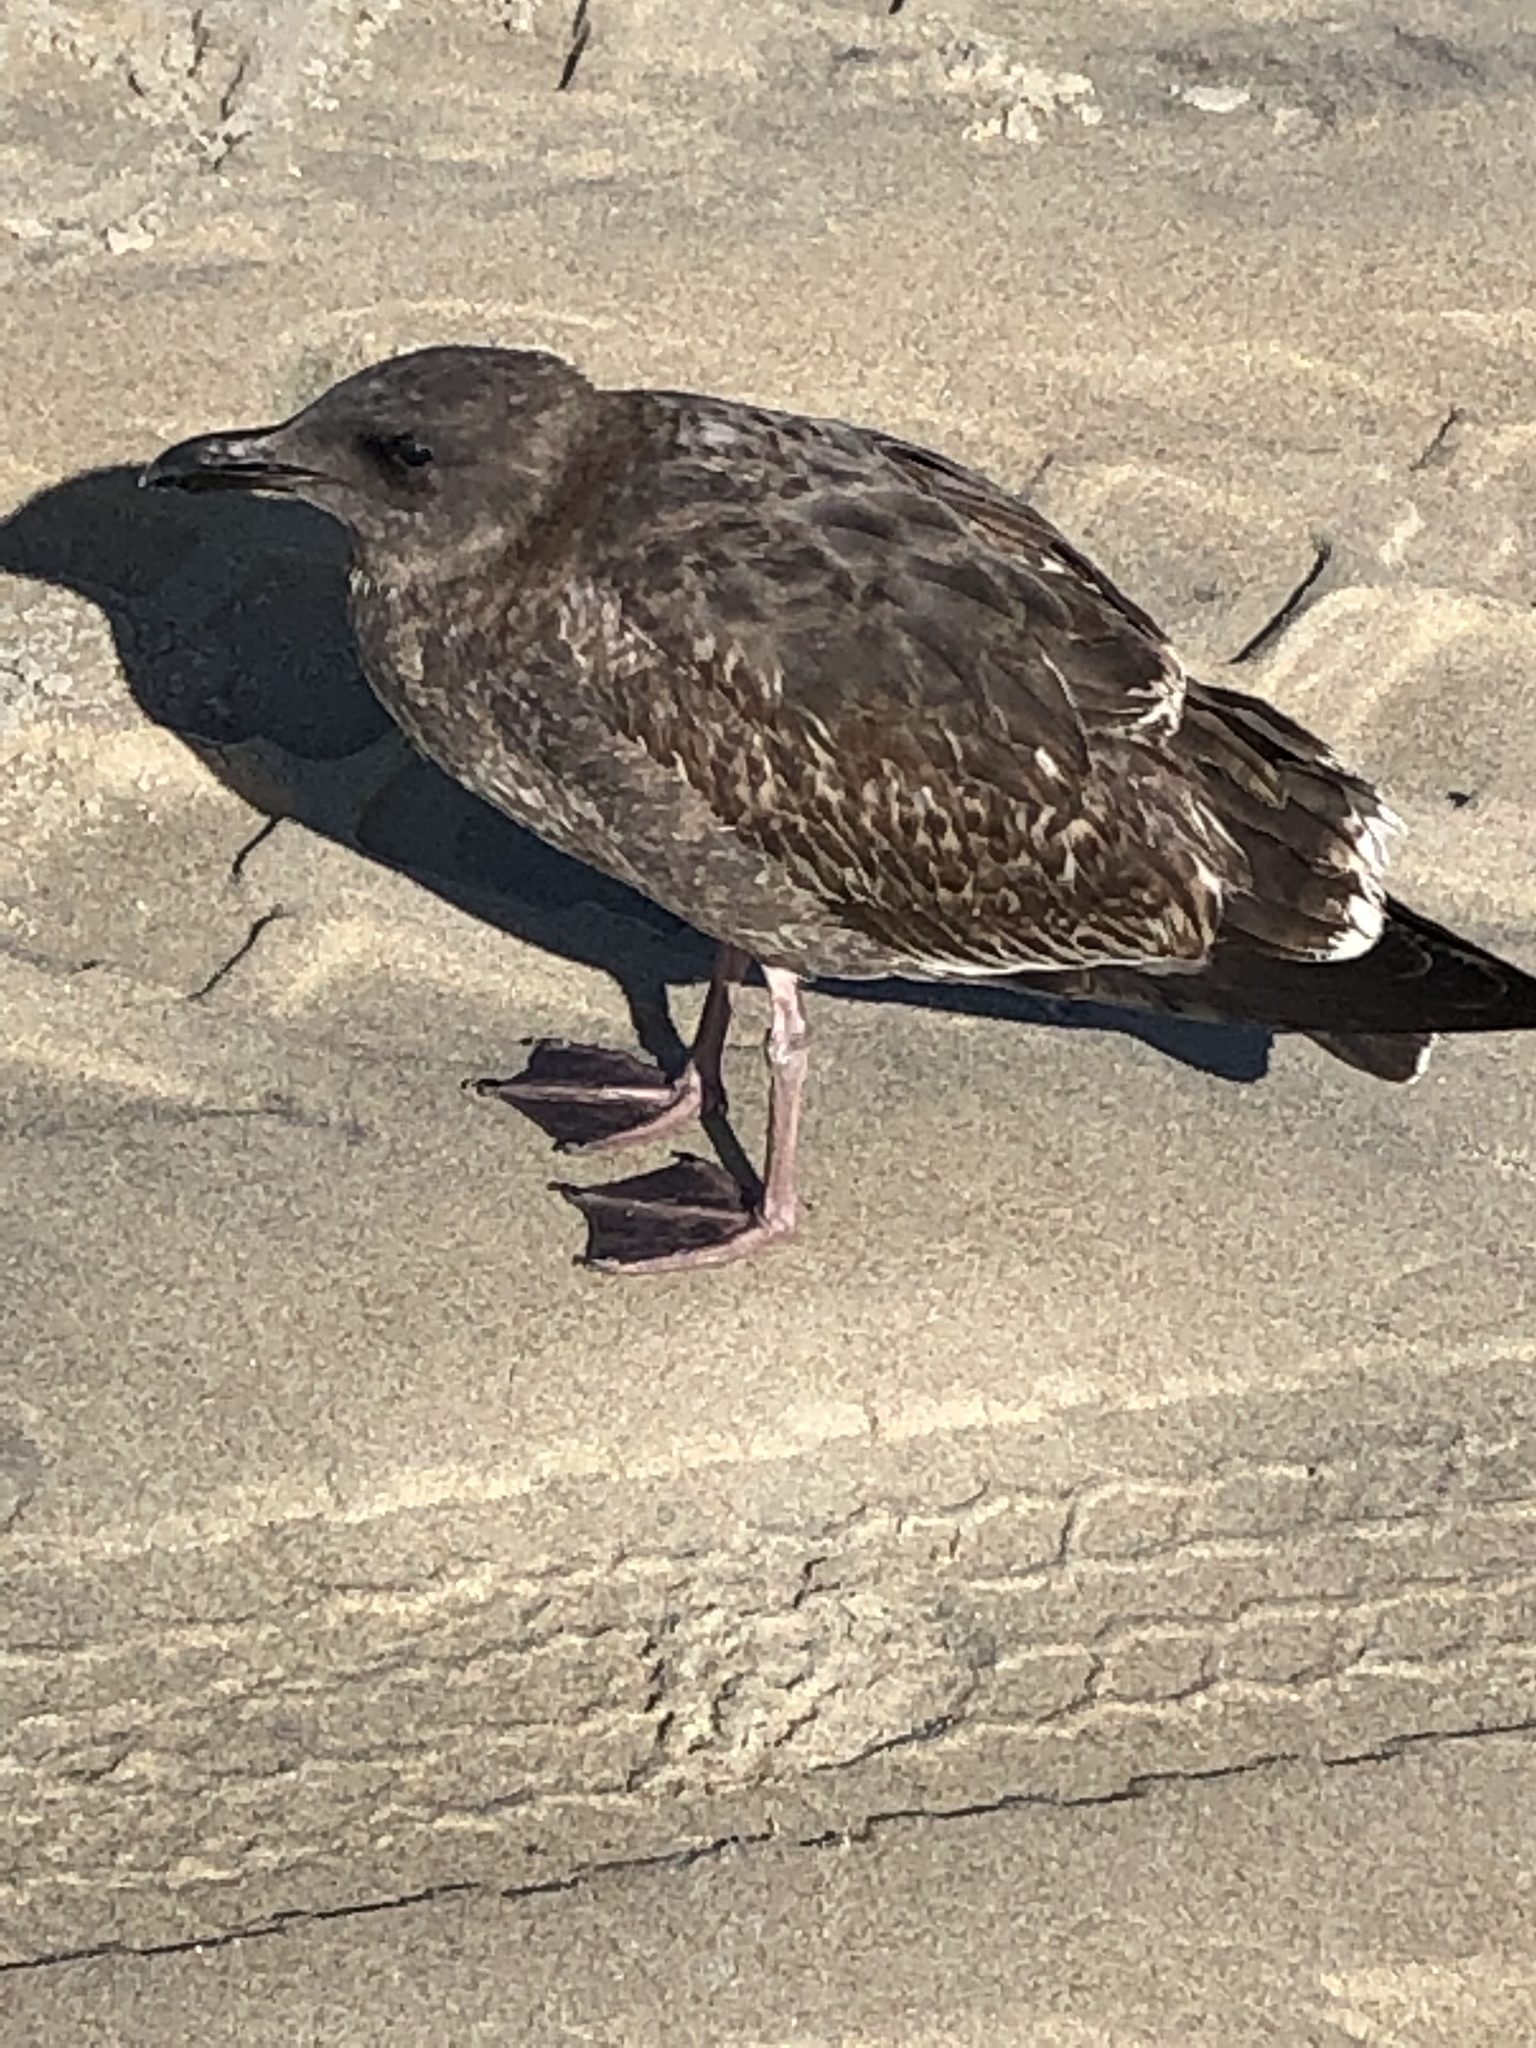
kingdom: Animalia
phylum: Chordata
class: Aves
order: Charadriiformes
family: Laridae
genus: Larus
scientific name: Larus occidentalis
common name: Western gull
